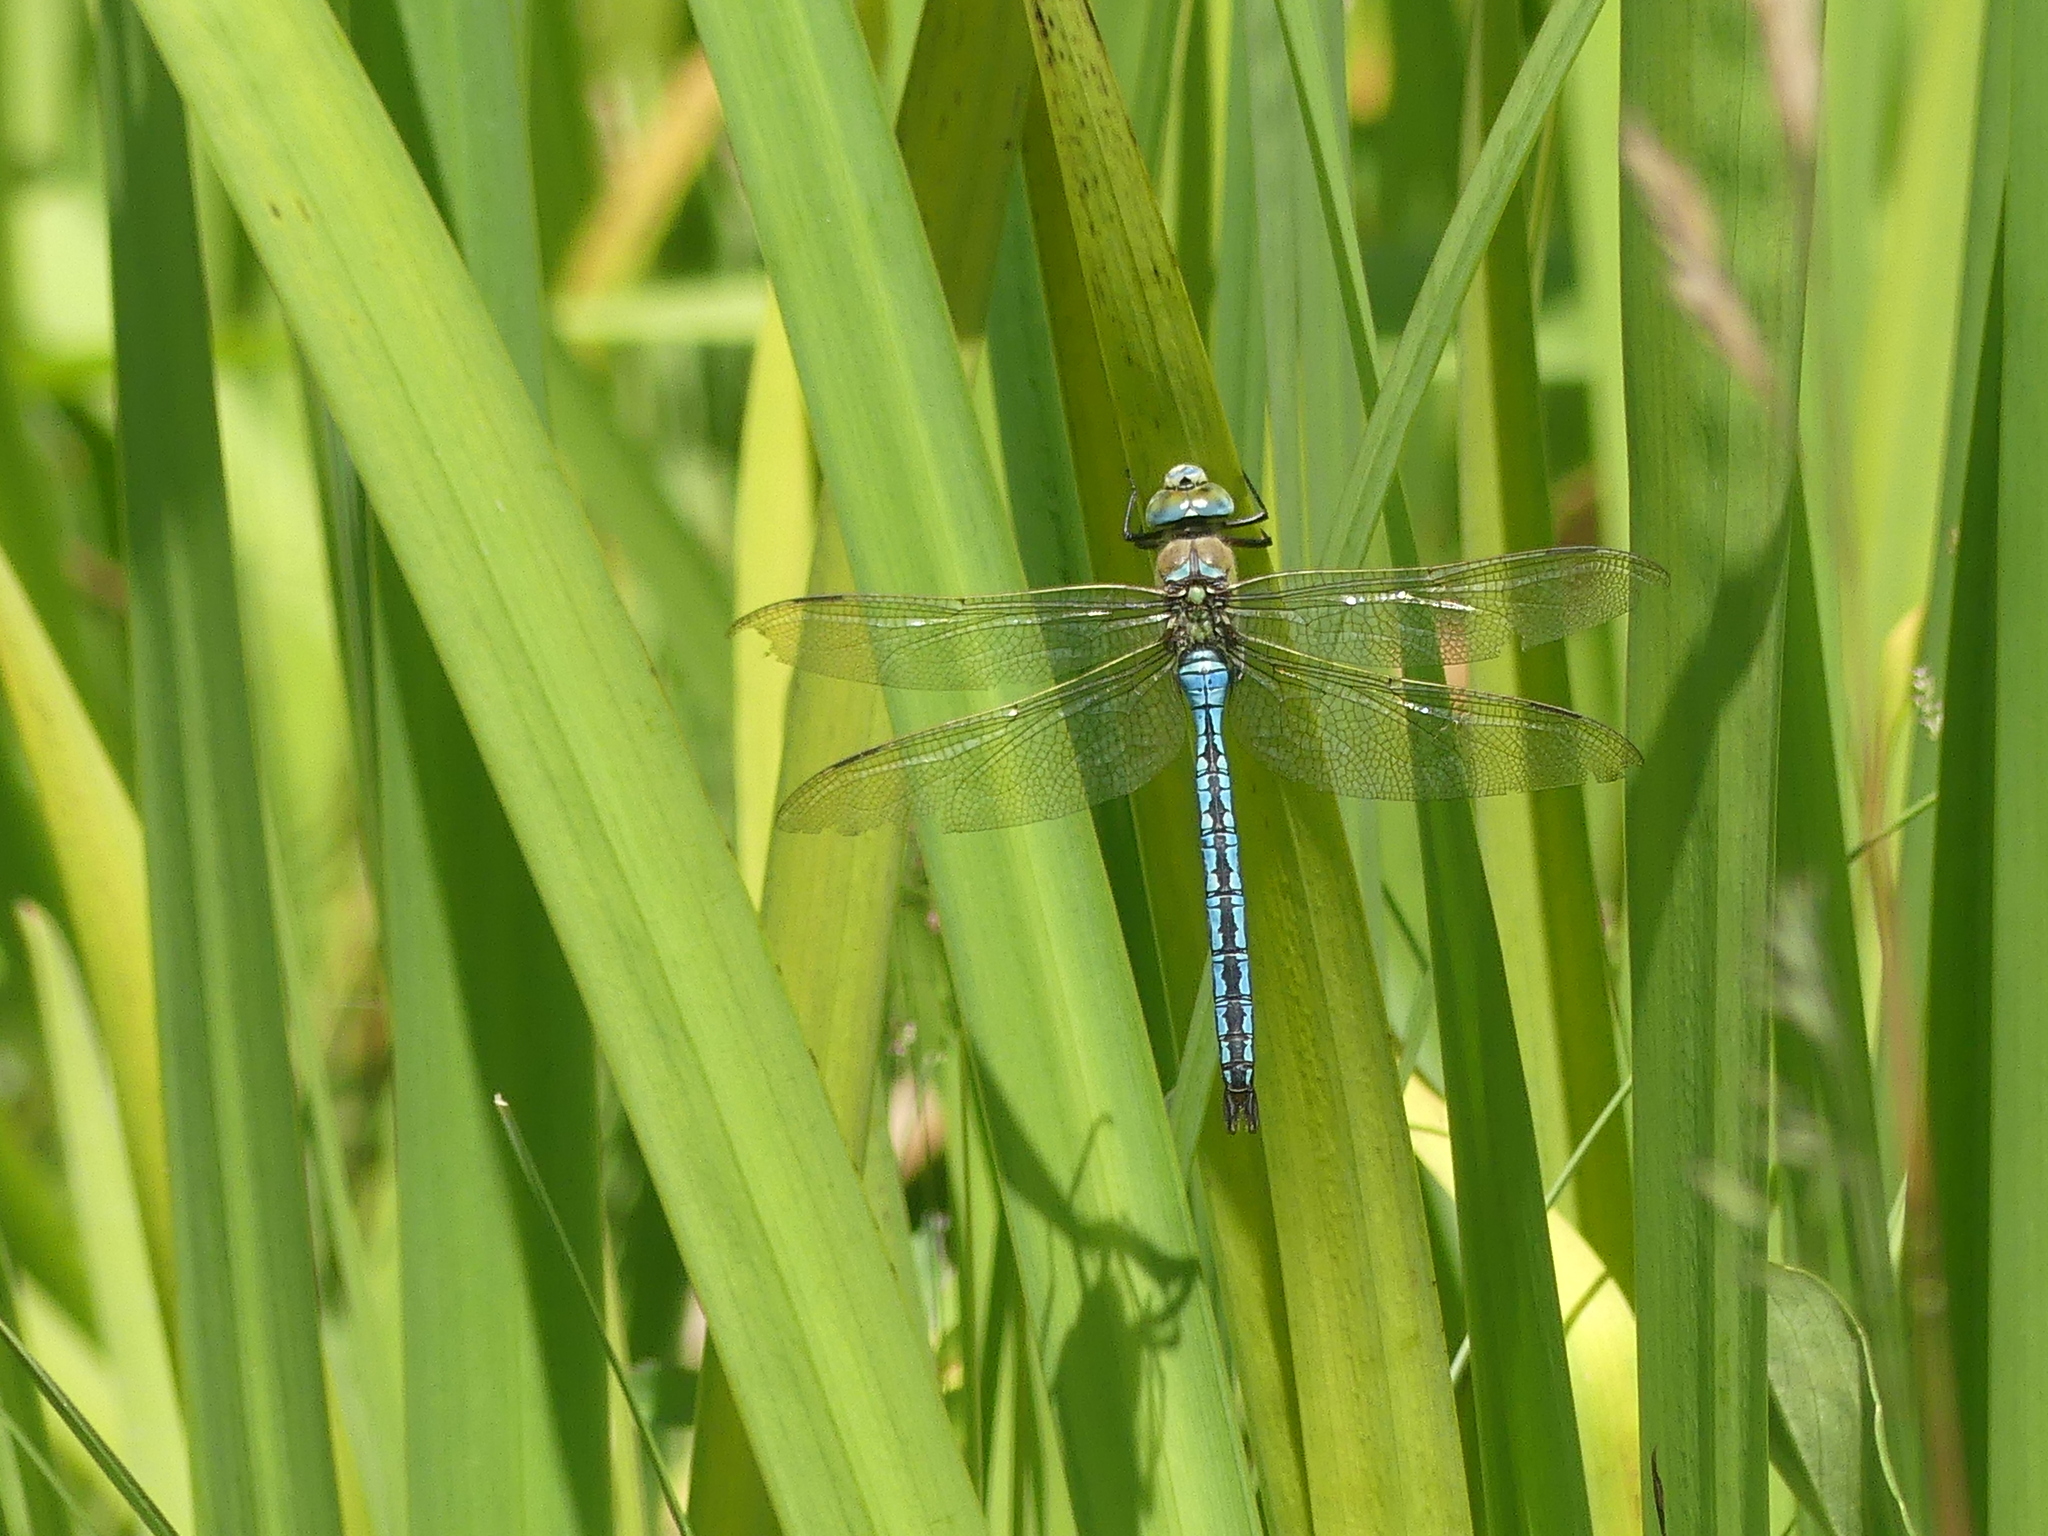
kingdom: Animalia
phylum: Arthropoda
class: Insecta
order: Odonata
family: Aeshnidae
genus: Anax
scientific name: Anax imperator
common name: Emperor dragonfly
